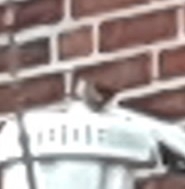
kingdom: Animalia
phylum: Chordata
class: Aves
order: Passeriformes
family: Troglodytidae
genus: Thryothorus
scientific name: Thryothorus ludovicianus
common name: Carolina wren
